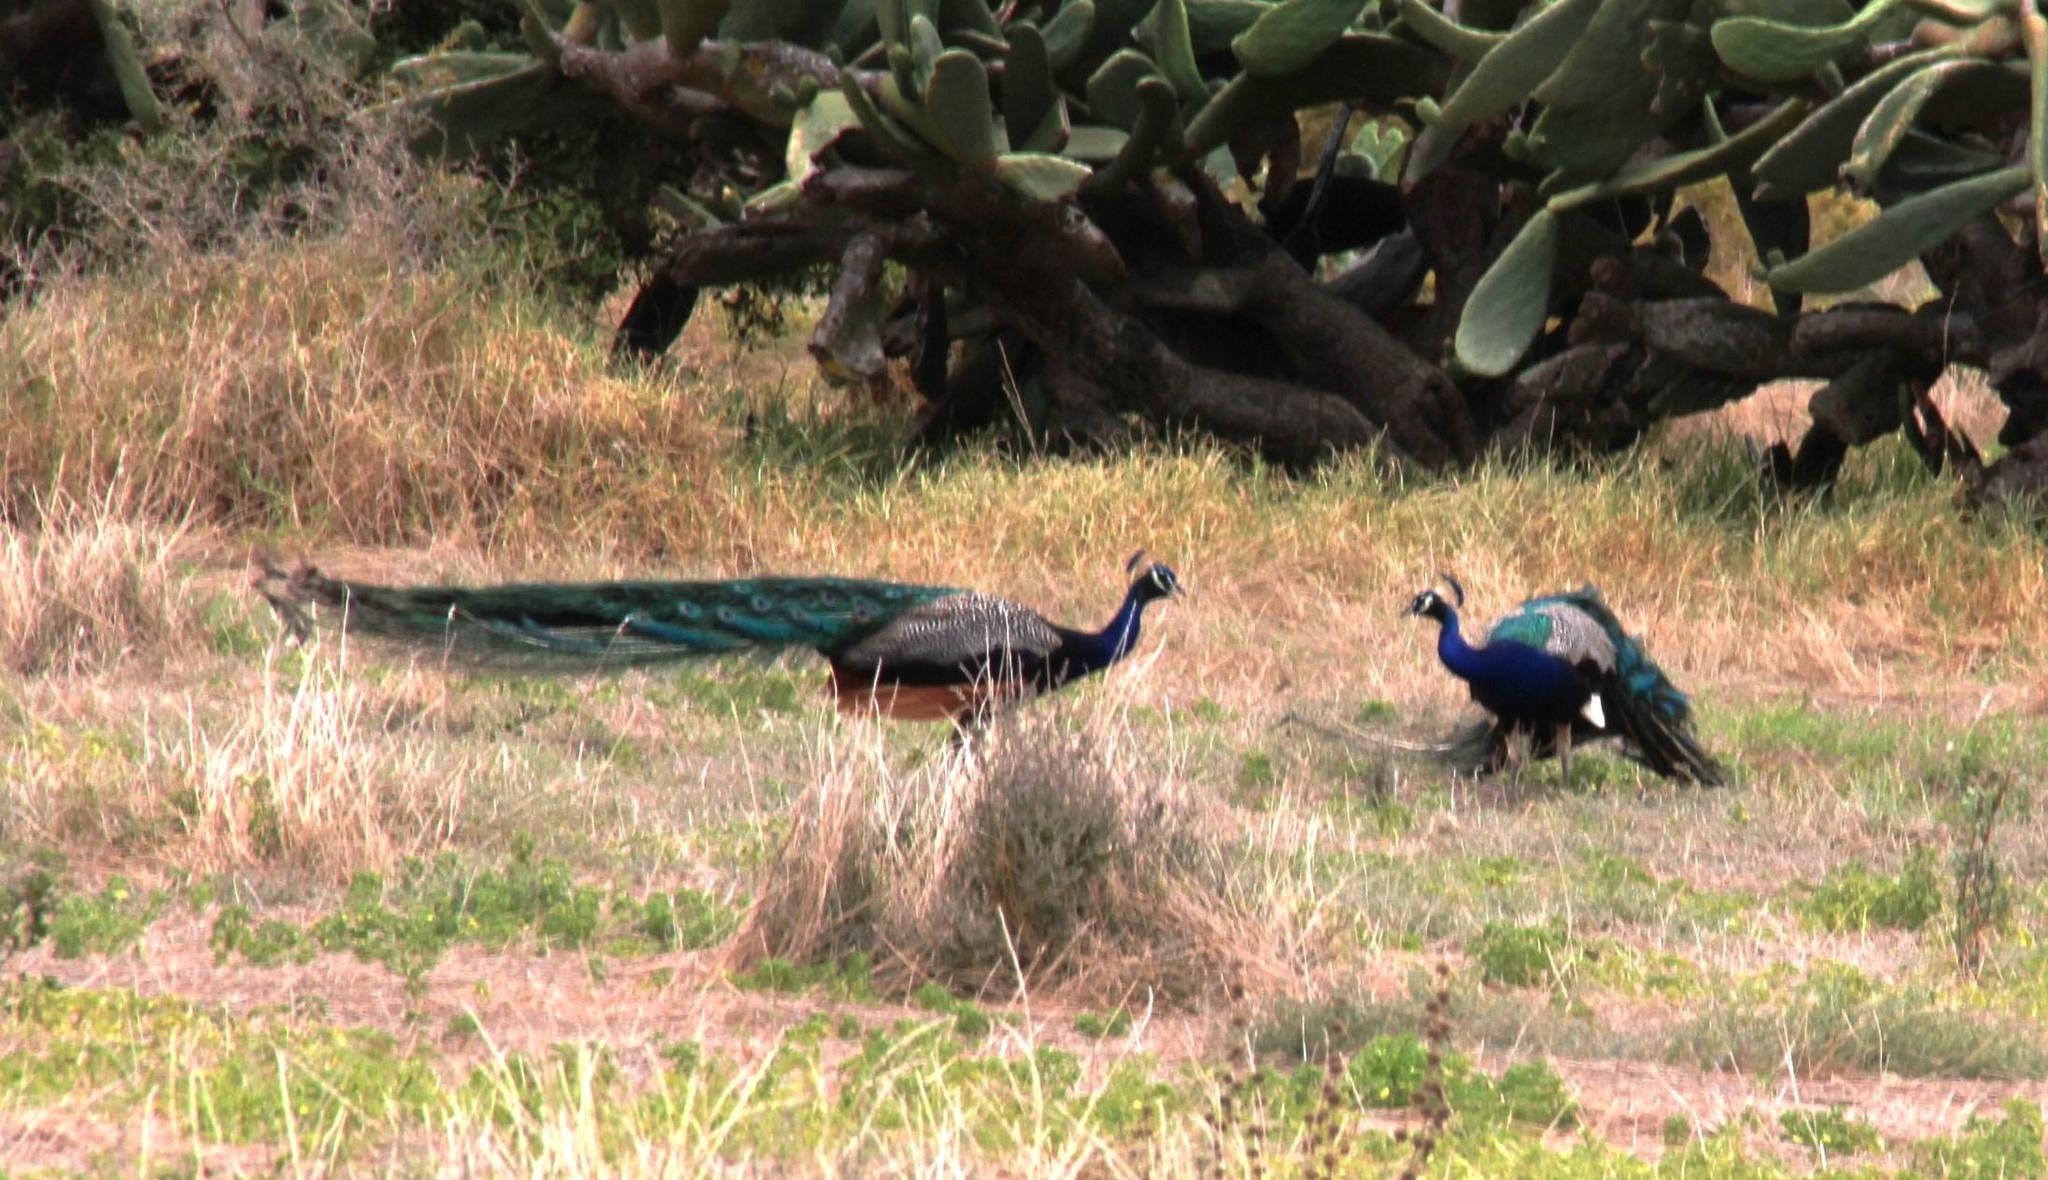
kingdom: Animalia
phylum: Chordata
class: Aves
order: Galliformes
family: Phasianidae
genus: Pavo
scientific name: Pavo cristatus
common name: Indian peafowl
